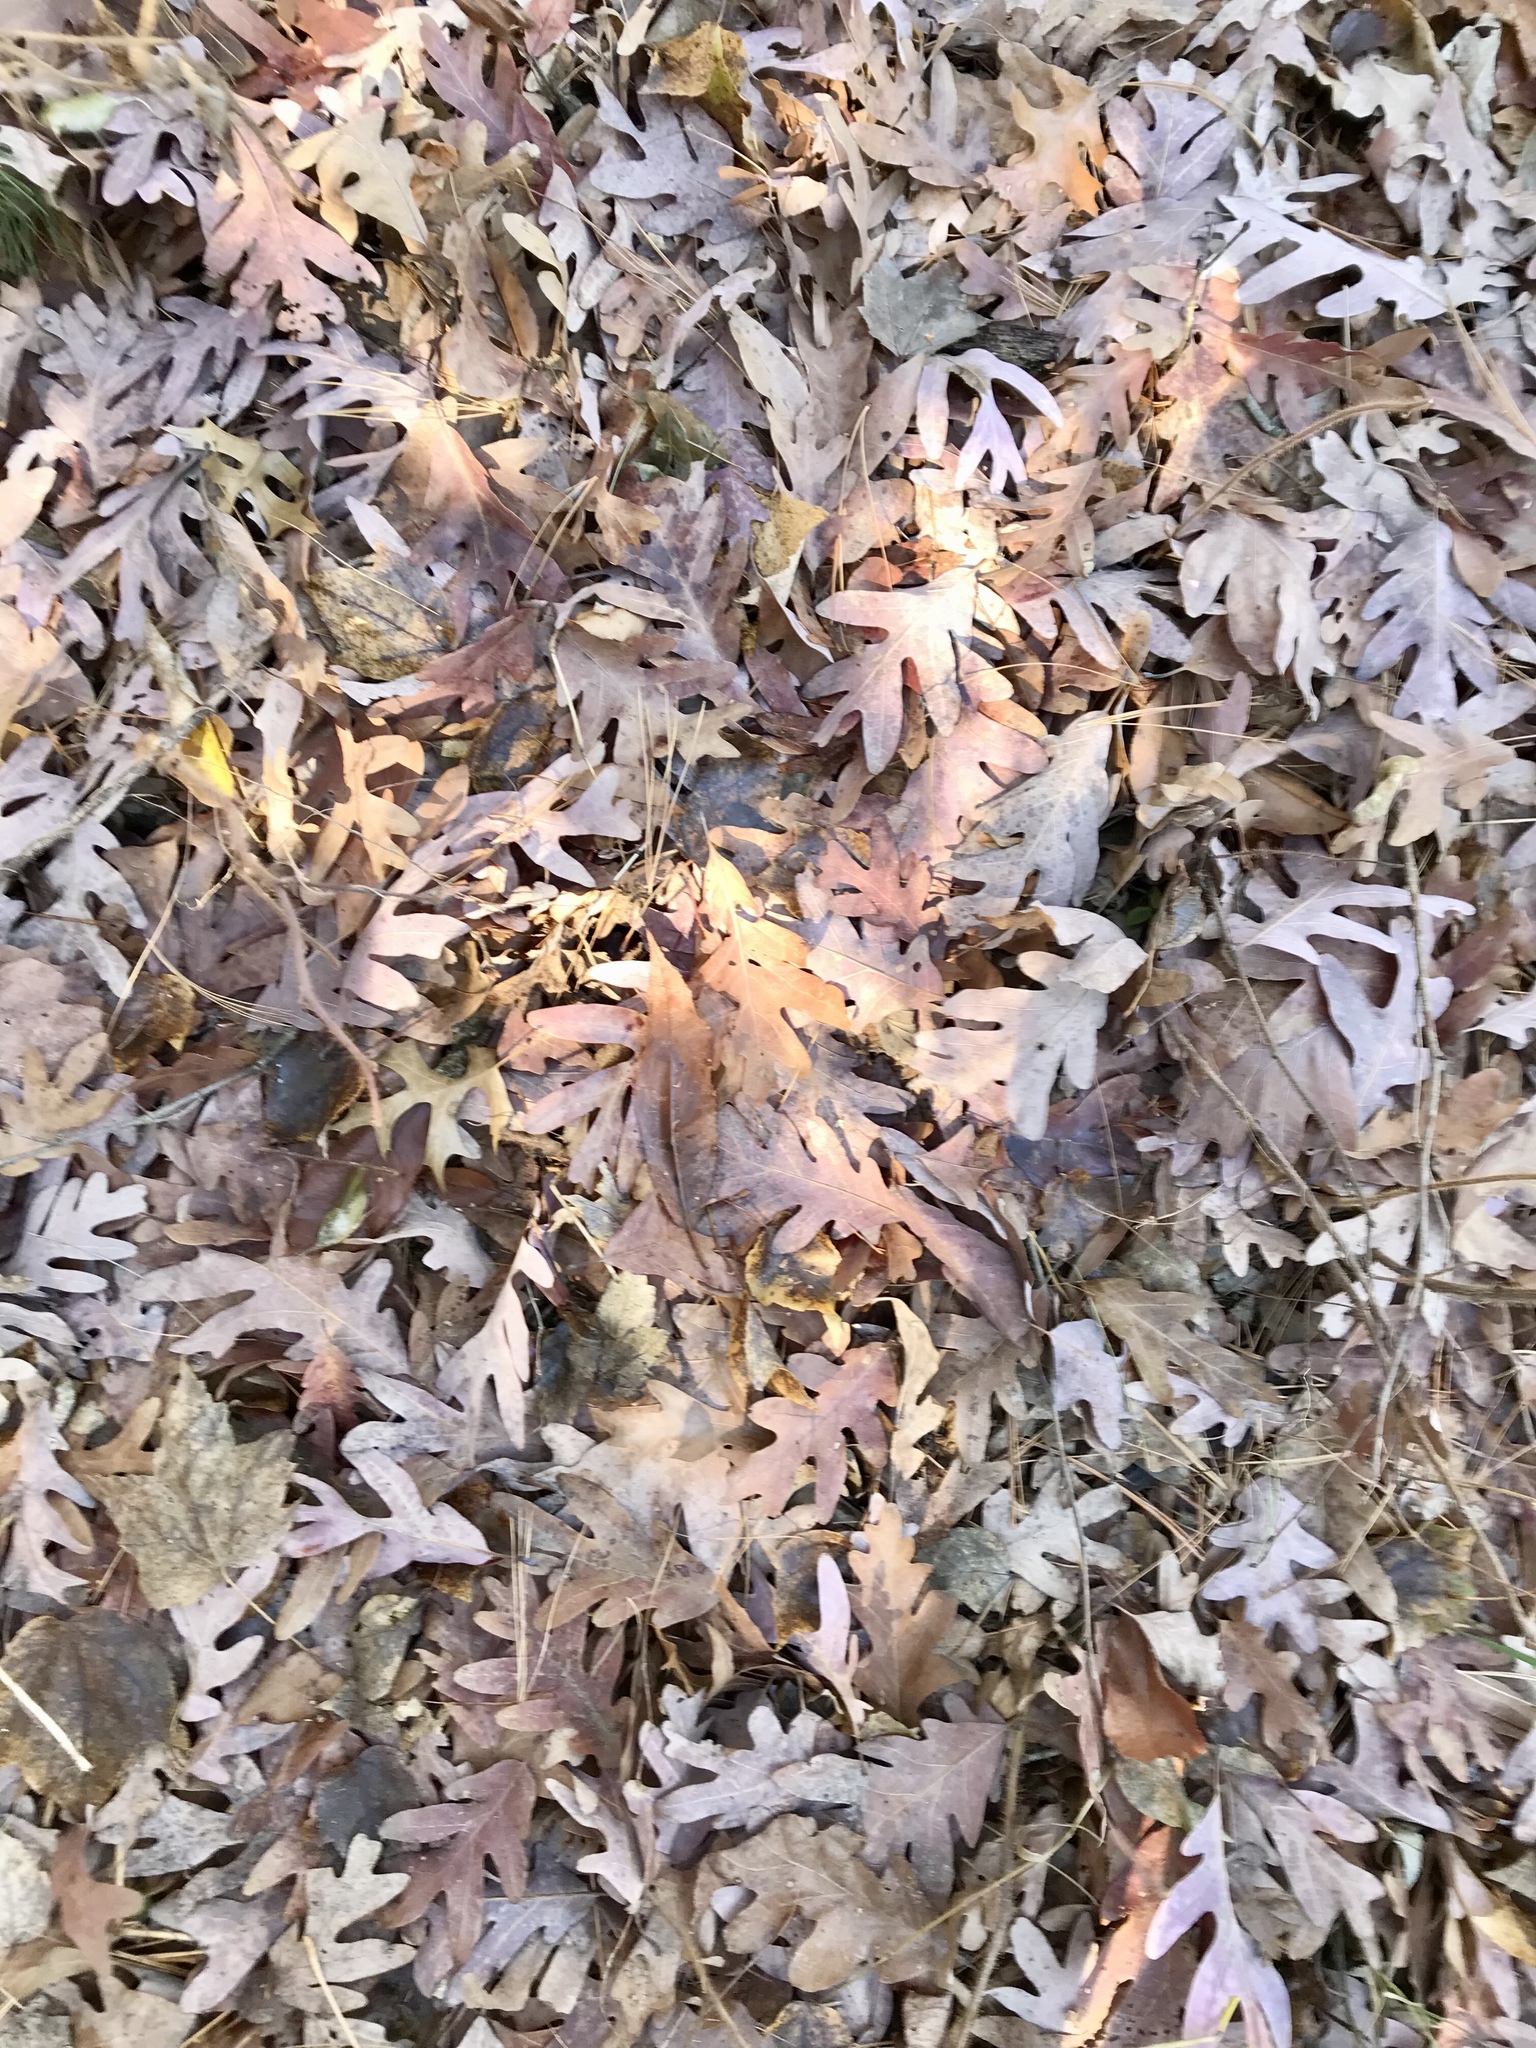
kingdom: Plantae
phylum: Tracheophyta
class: Magnoliopsida
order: Fagales
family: Fagaceae
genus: Quercus
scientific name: Quercus alba
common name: White oak
